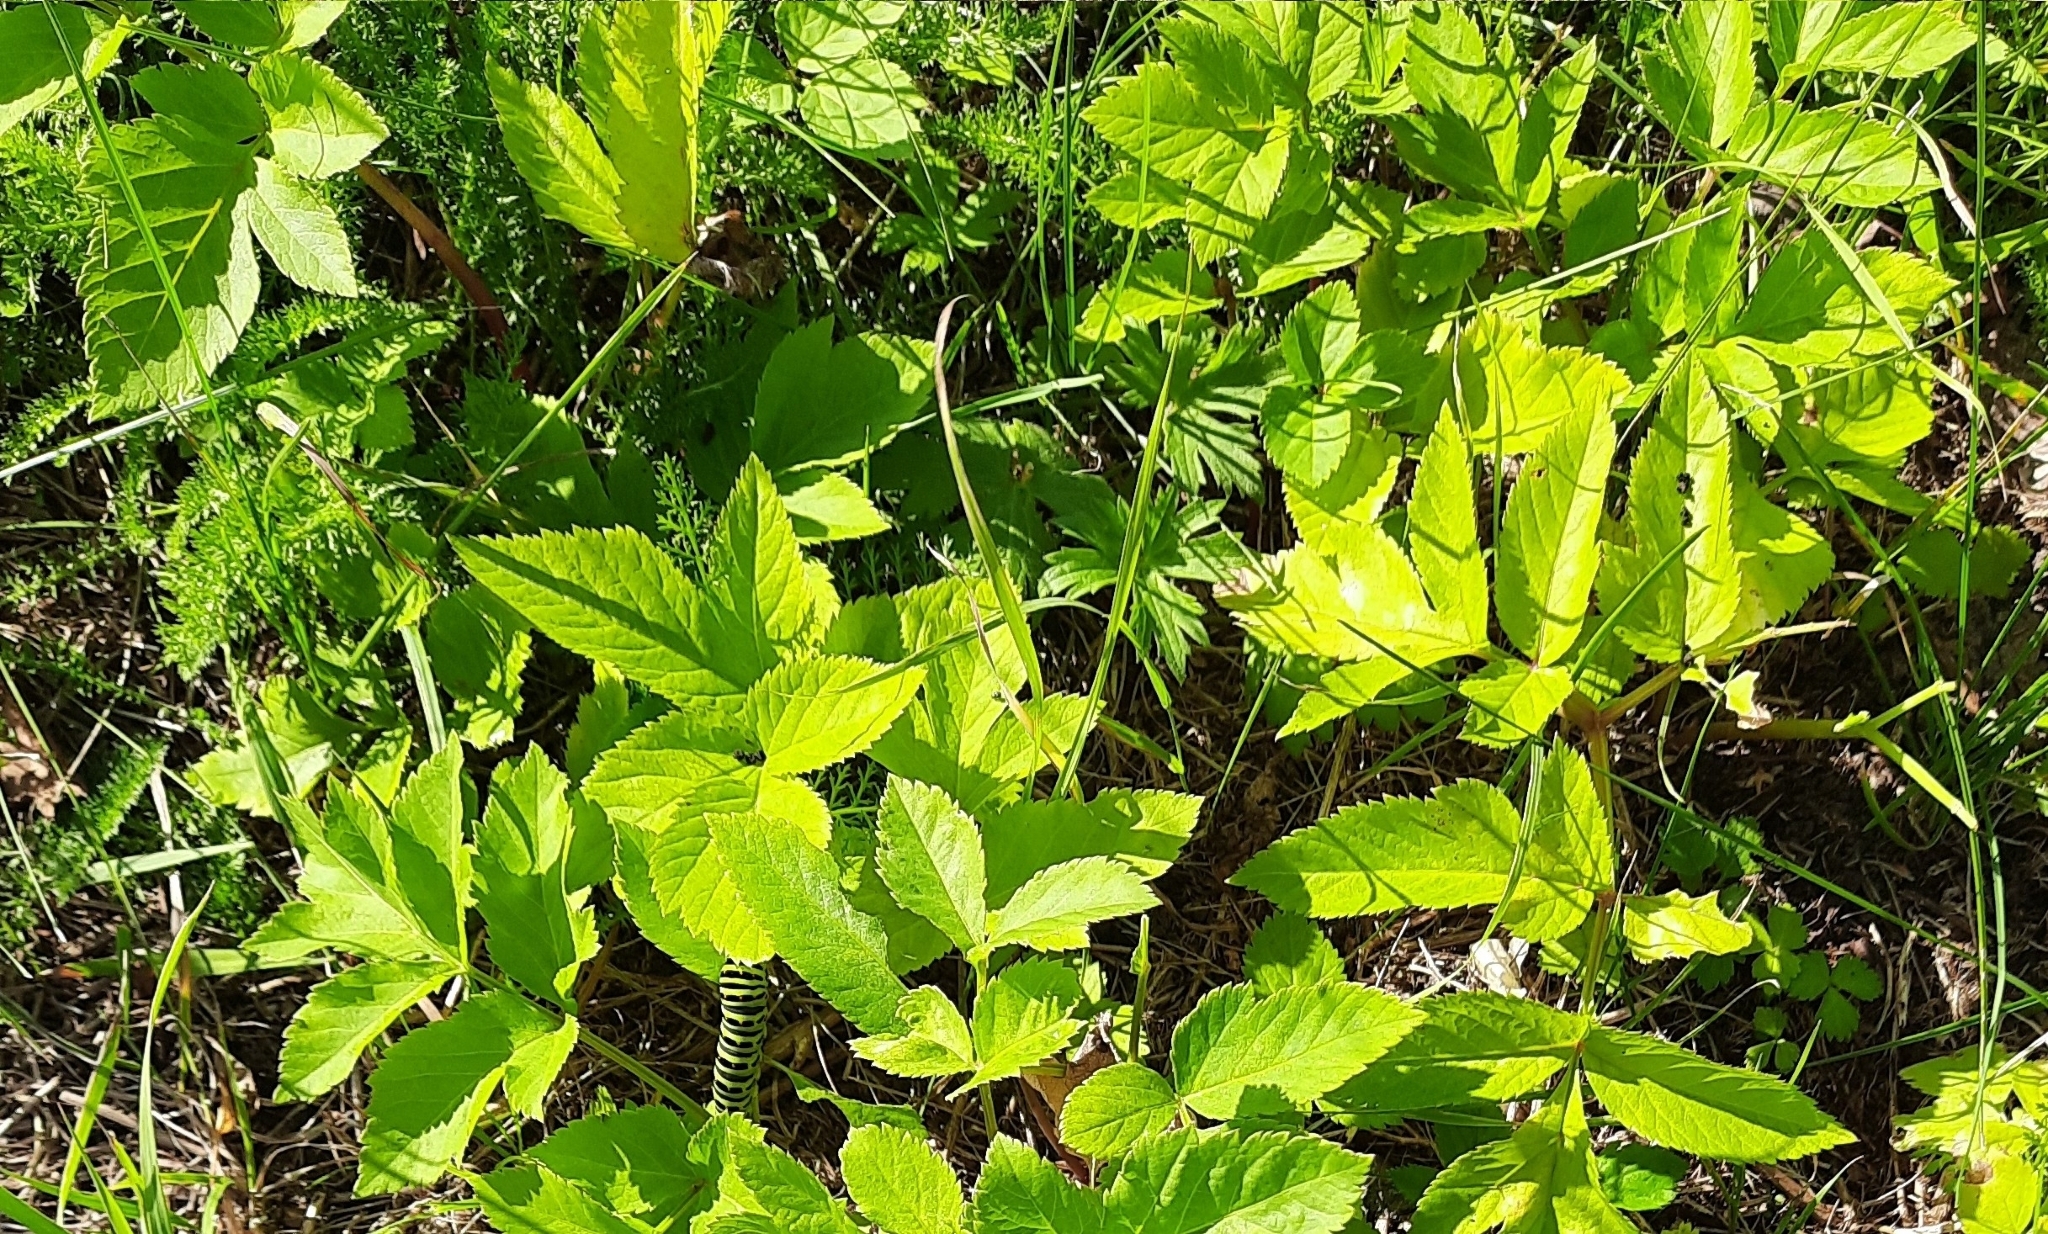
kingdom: Plantae
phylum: Tracheophyta
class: Magnoliopsida
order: Apiales
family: Apiaceae
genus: Angelica
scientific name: Angelica sylvestris
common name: Wild angelica
